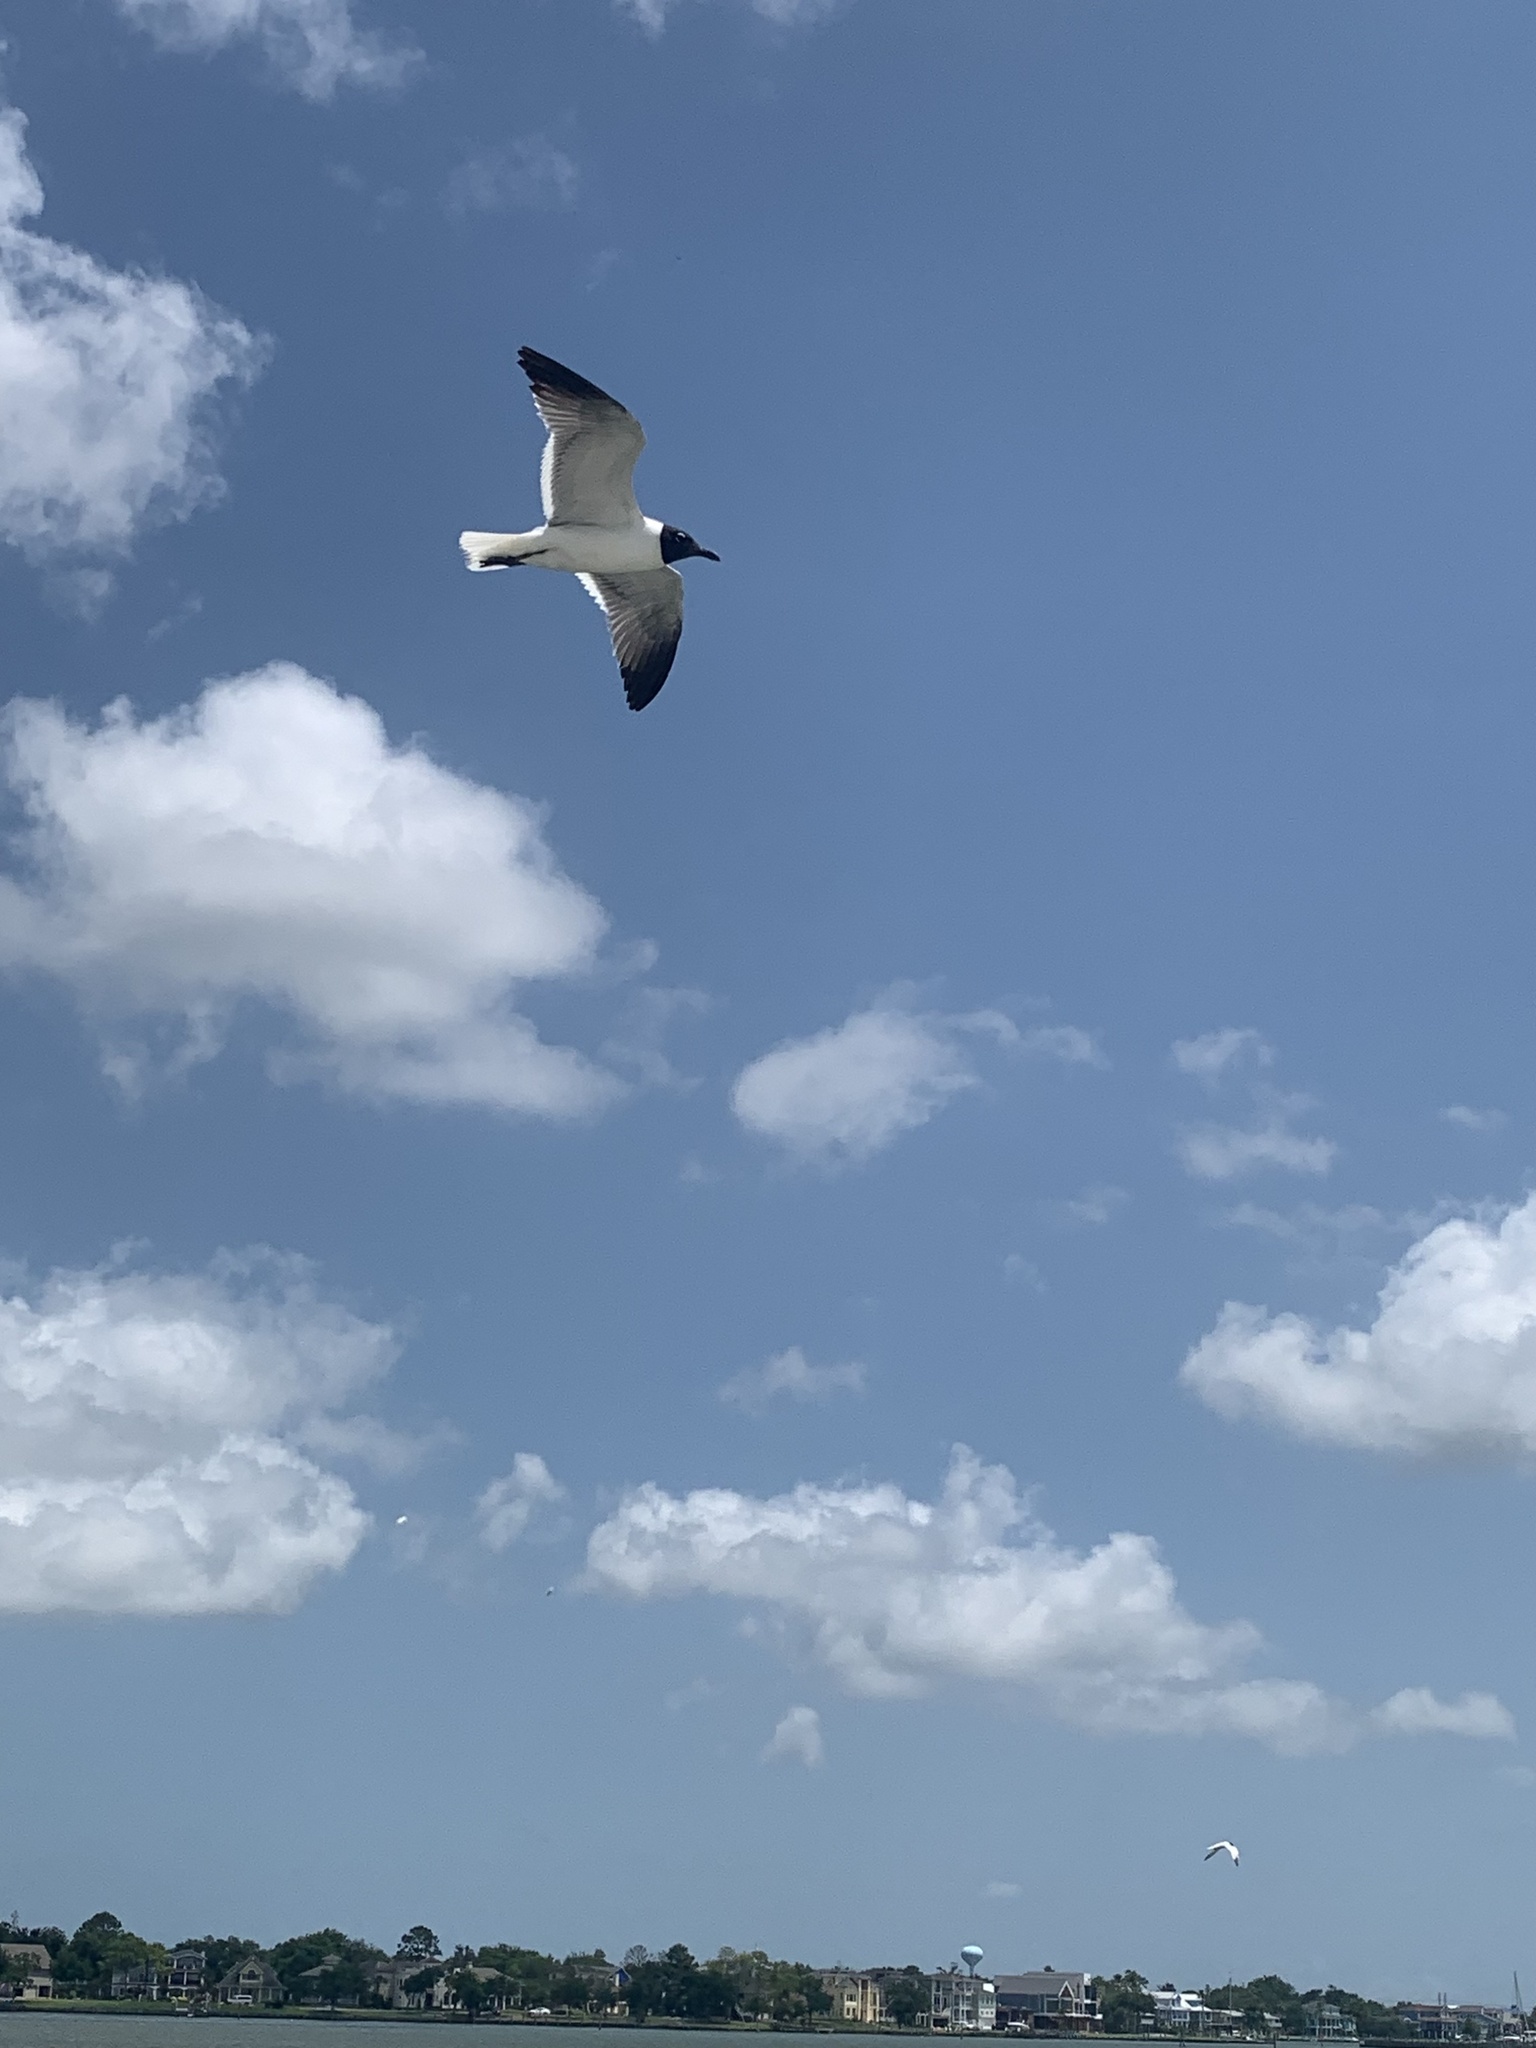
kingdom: Animalia
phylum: Chordata
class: Aves
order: Charadriiformes
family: Laridae
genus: Leucophaeus
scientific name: Leucophaeus atricilla
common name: Laughing gull
